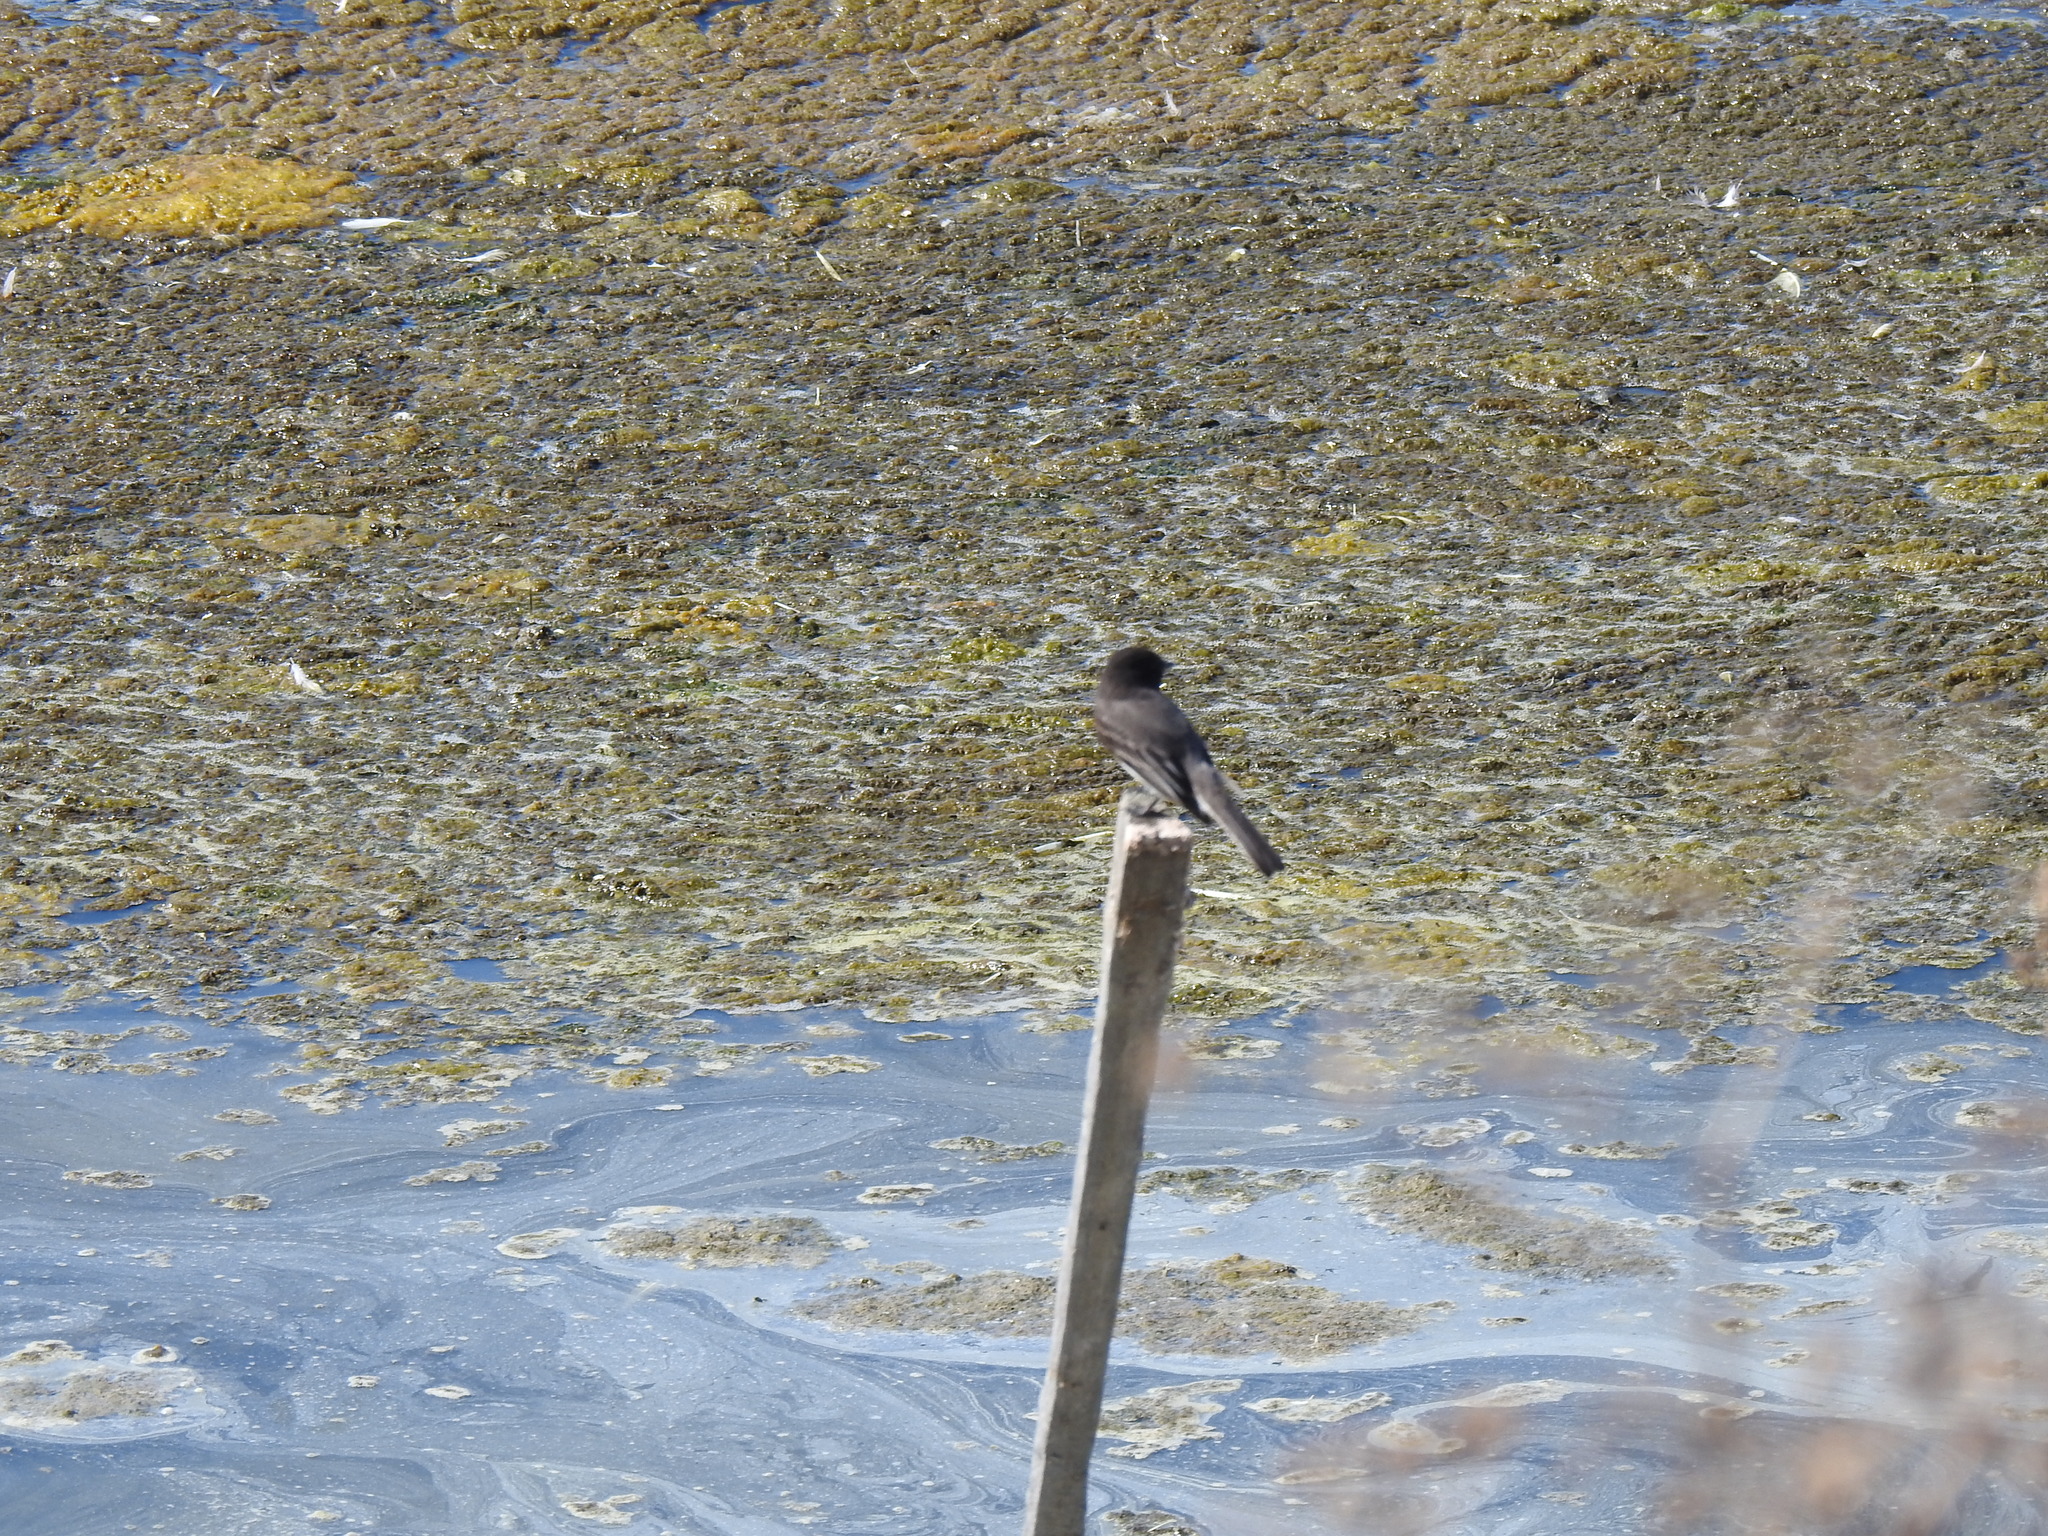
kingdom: Animalia
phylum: Chordata
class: Aves
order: Passeriformes
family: Tyrannidae
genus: Sayornis
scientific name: Sayornis nigricans
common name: Black phoebe
